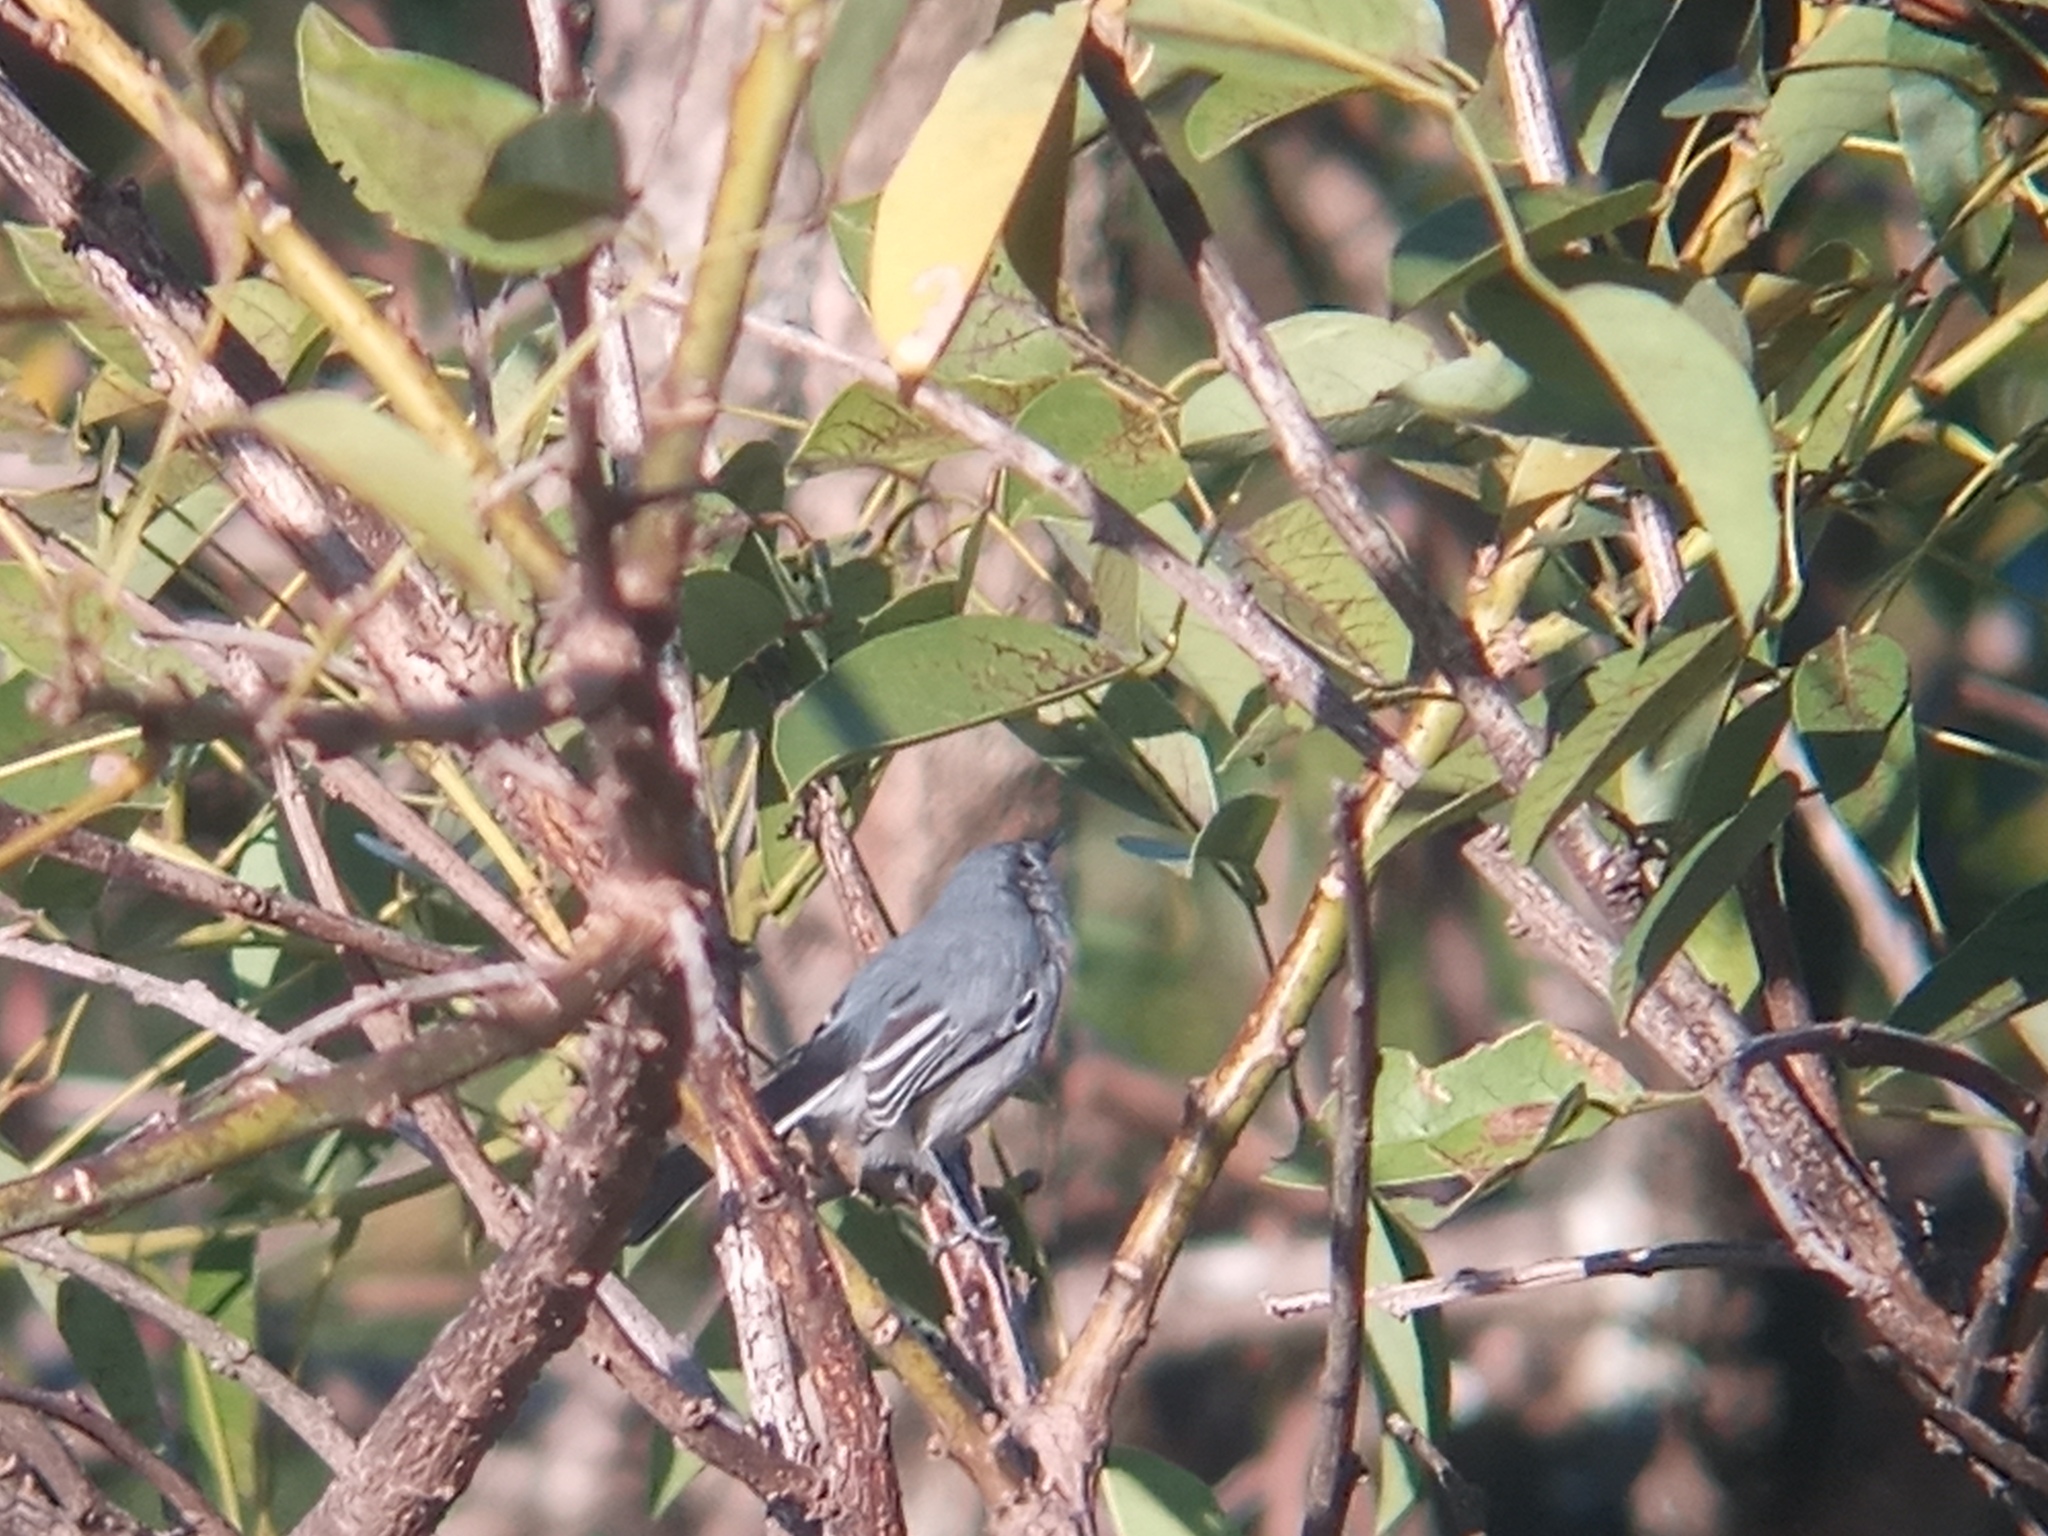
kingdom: Animalia
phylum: Chordata
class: Aves
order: Passeriformes
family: Polioptilidae
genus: Polioptila
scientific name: Polioptila dumicola
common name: Masked gnatcatcher
